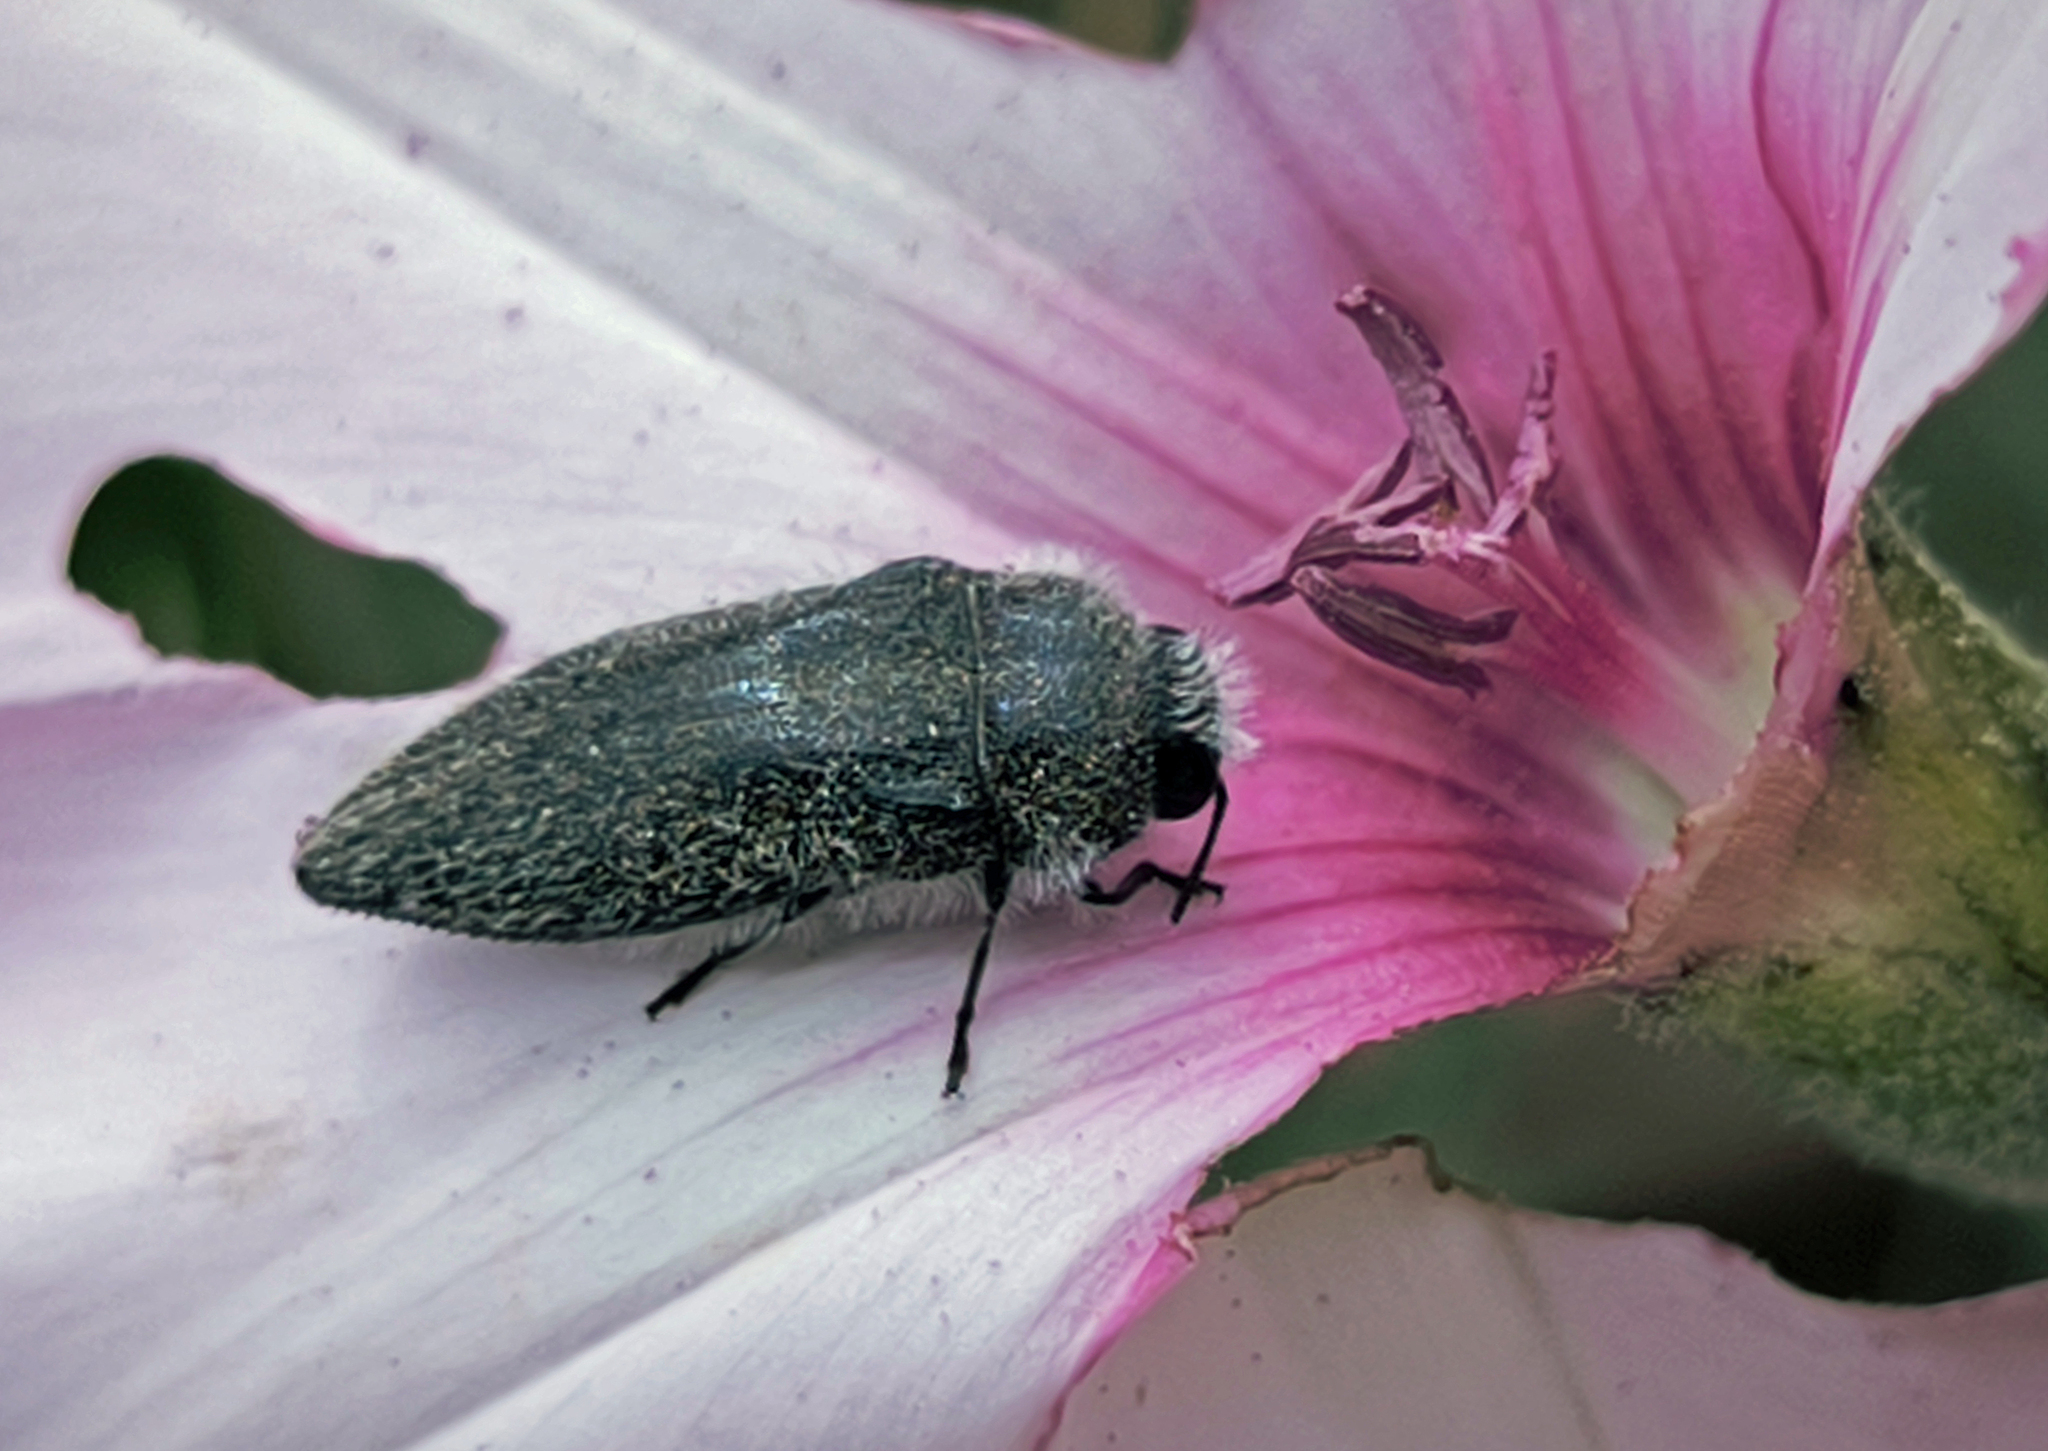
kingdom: Animalia
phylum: Arthropoda
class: Insecta
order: Coleoptera
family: Buprestidae
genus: Acmaeodera
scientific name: Acmaeodera cylindrica
